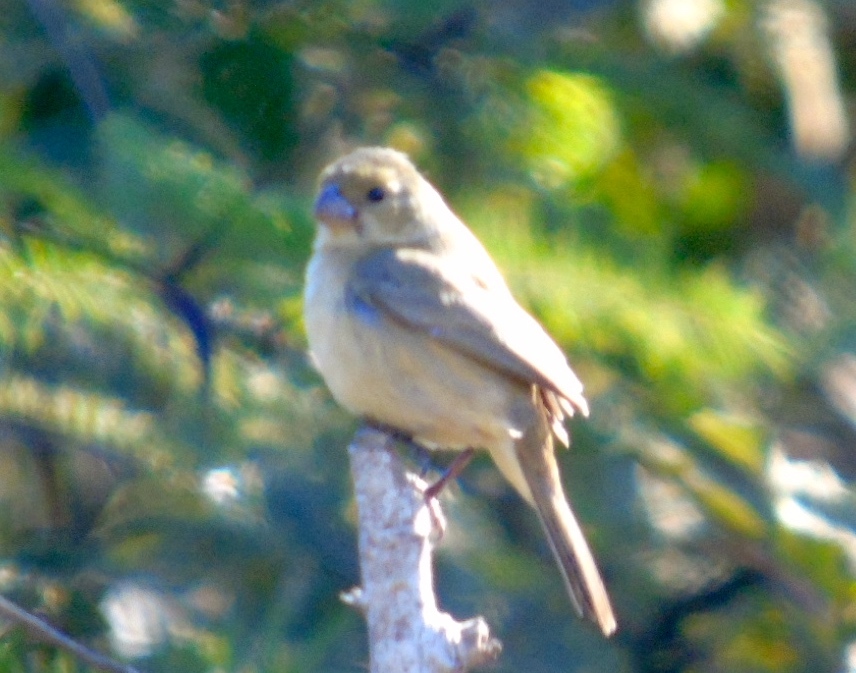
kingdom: Animalia
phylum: Chordata
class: Aves
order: Passeriformes
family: Thraupidae
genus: Sporophila
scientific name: Sporophila torqueola
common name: White-collared seedeater
